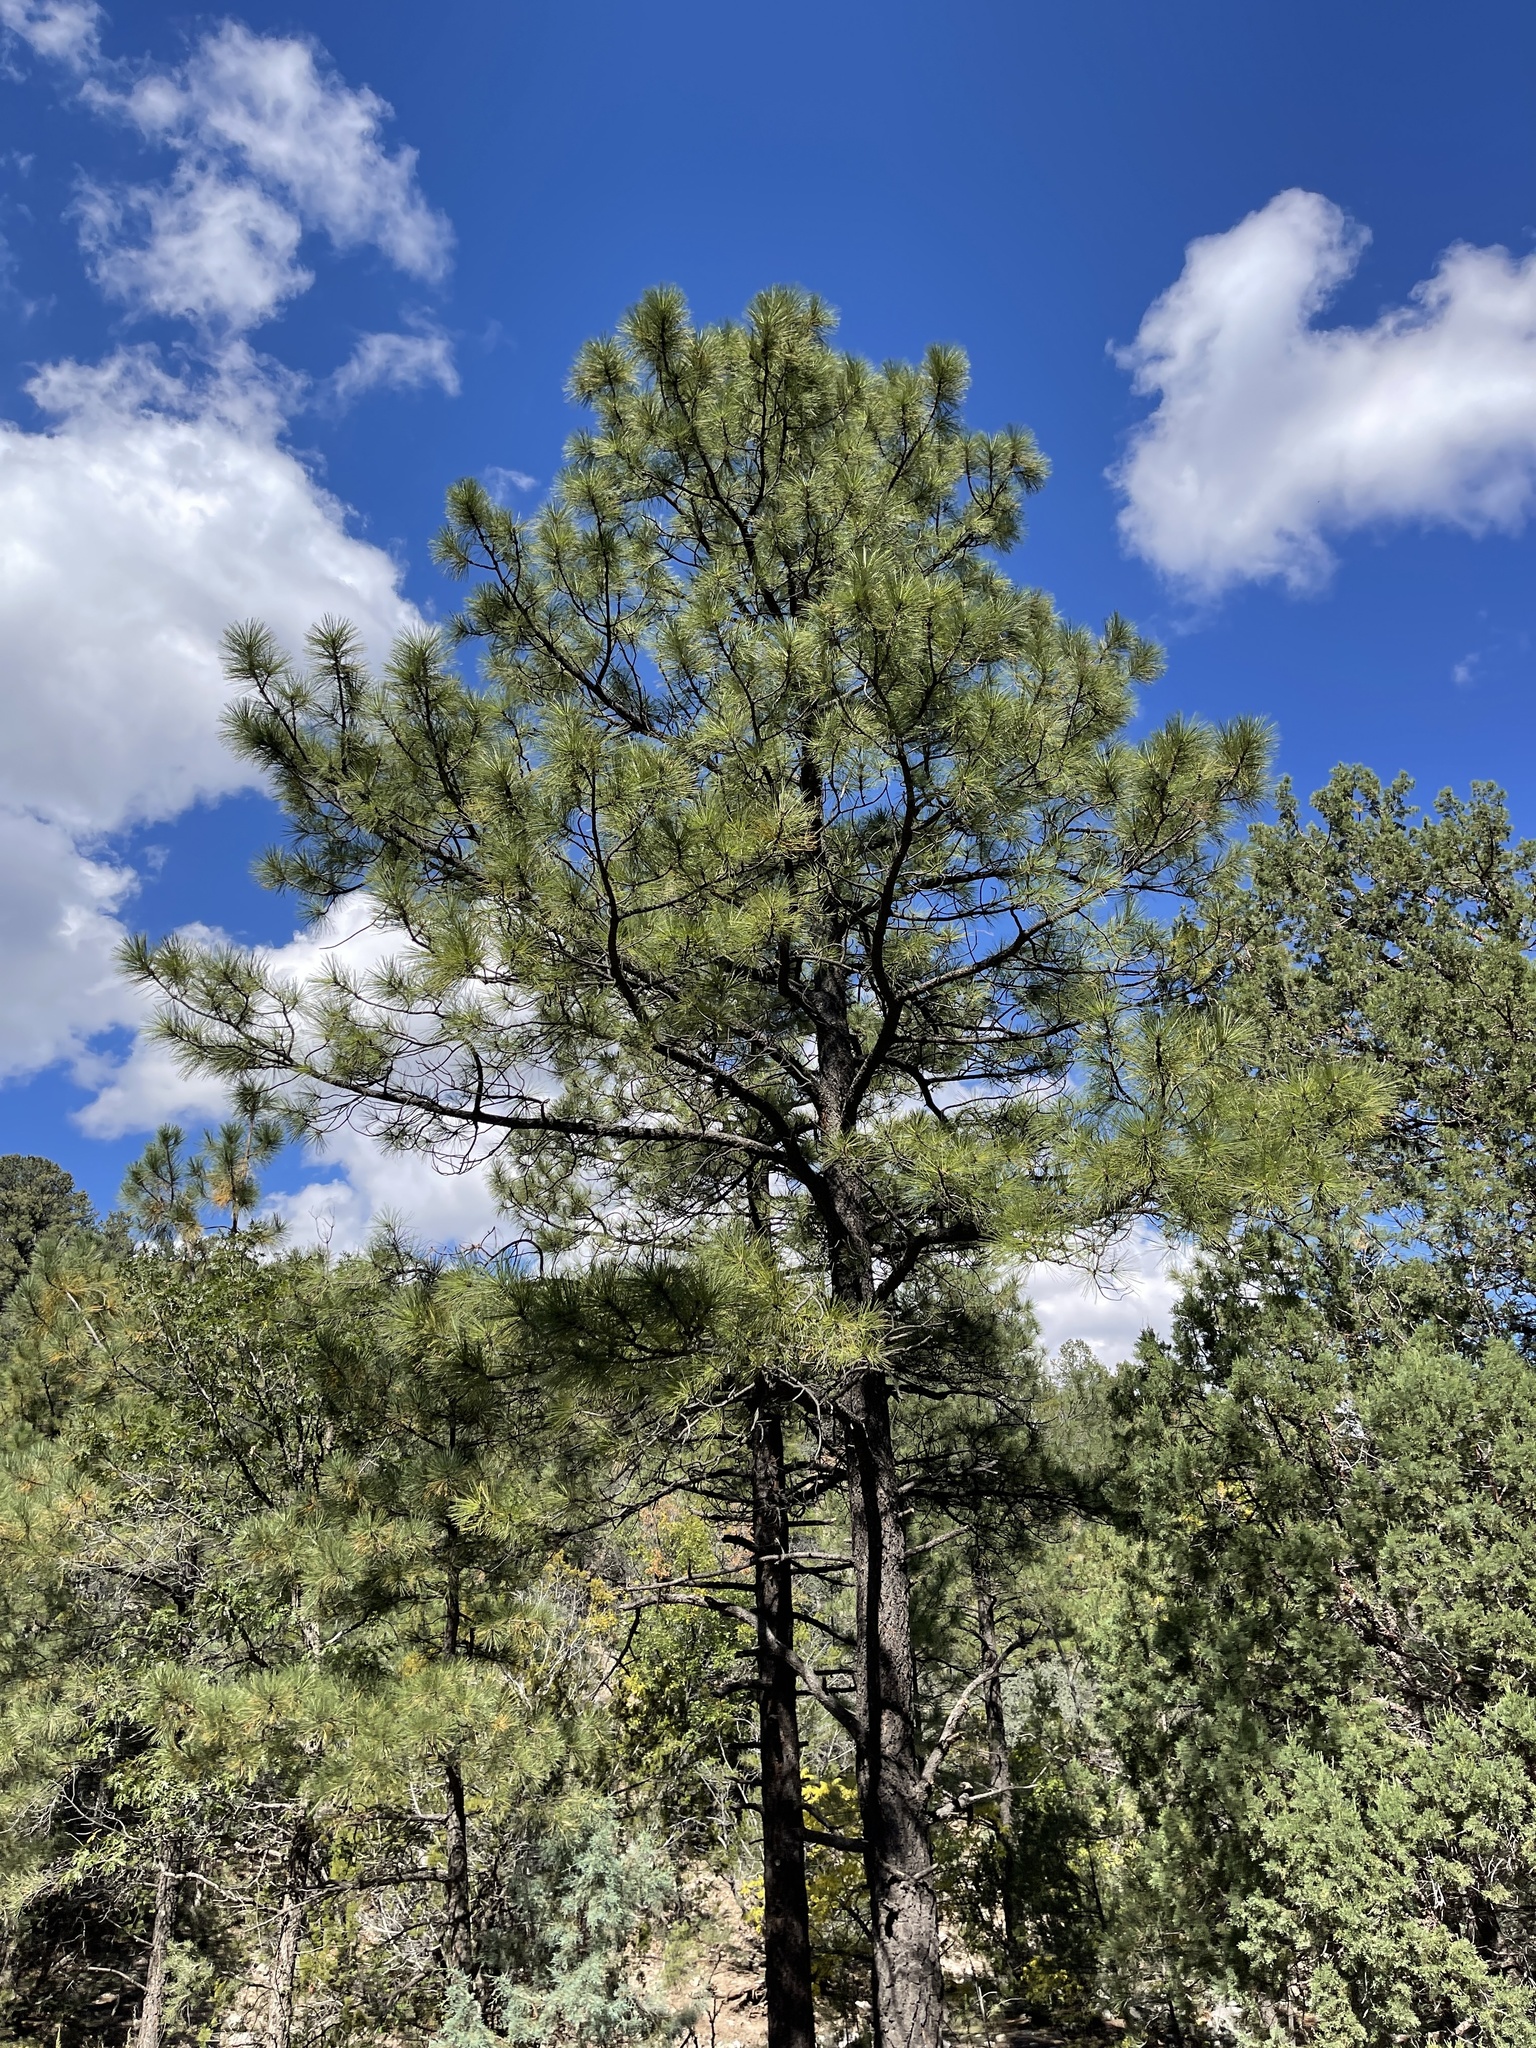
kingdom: Plantae
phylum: Tracheophyta
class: Pinopsida
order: Pinales
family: Pinaceae
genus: Pinus
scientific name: Pinus ponderosa
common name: Western yellow-pine
